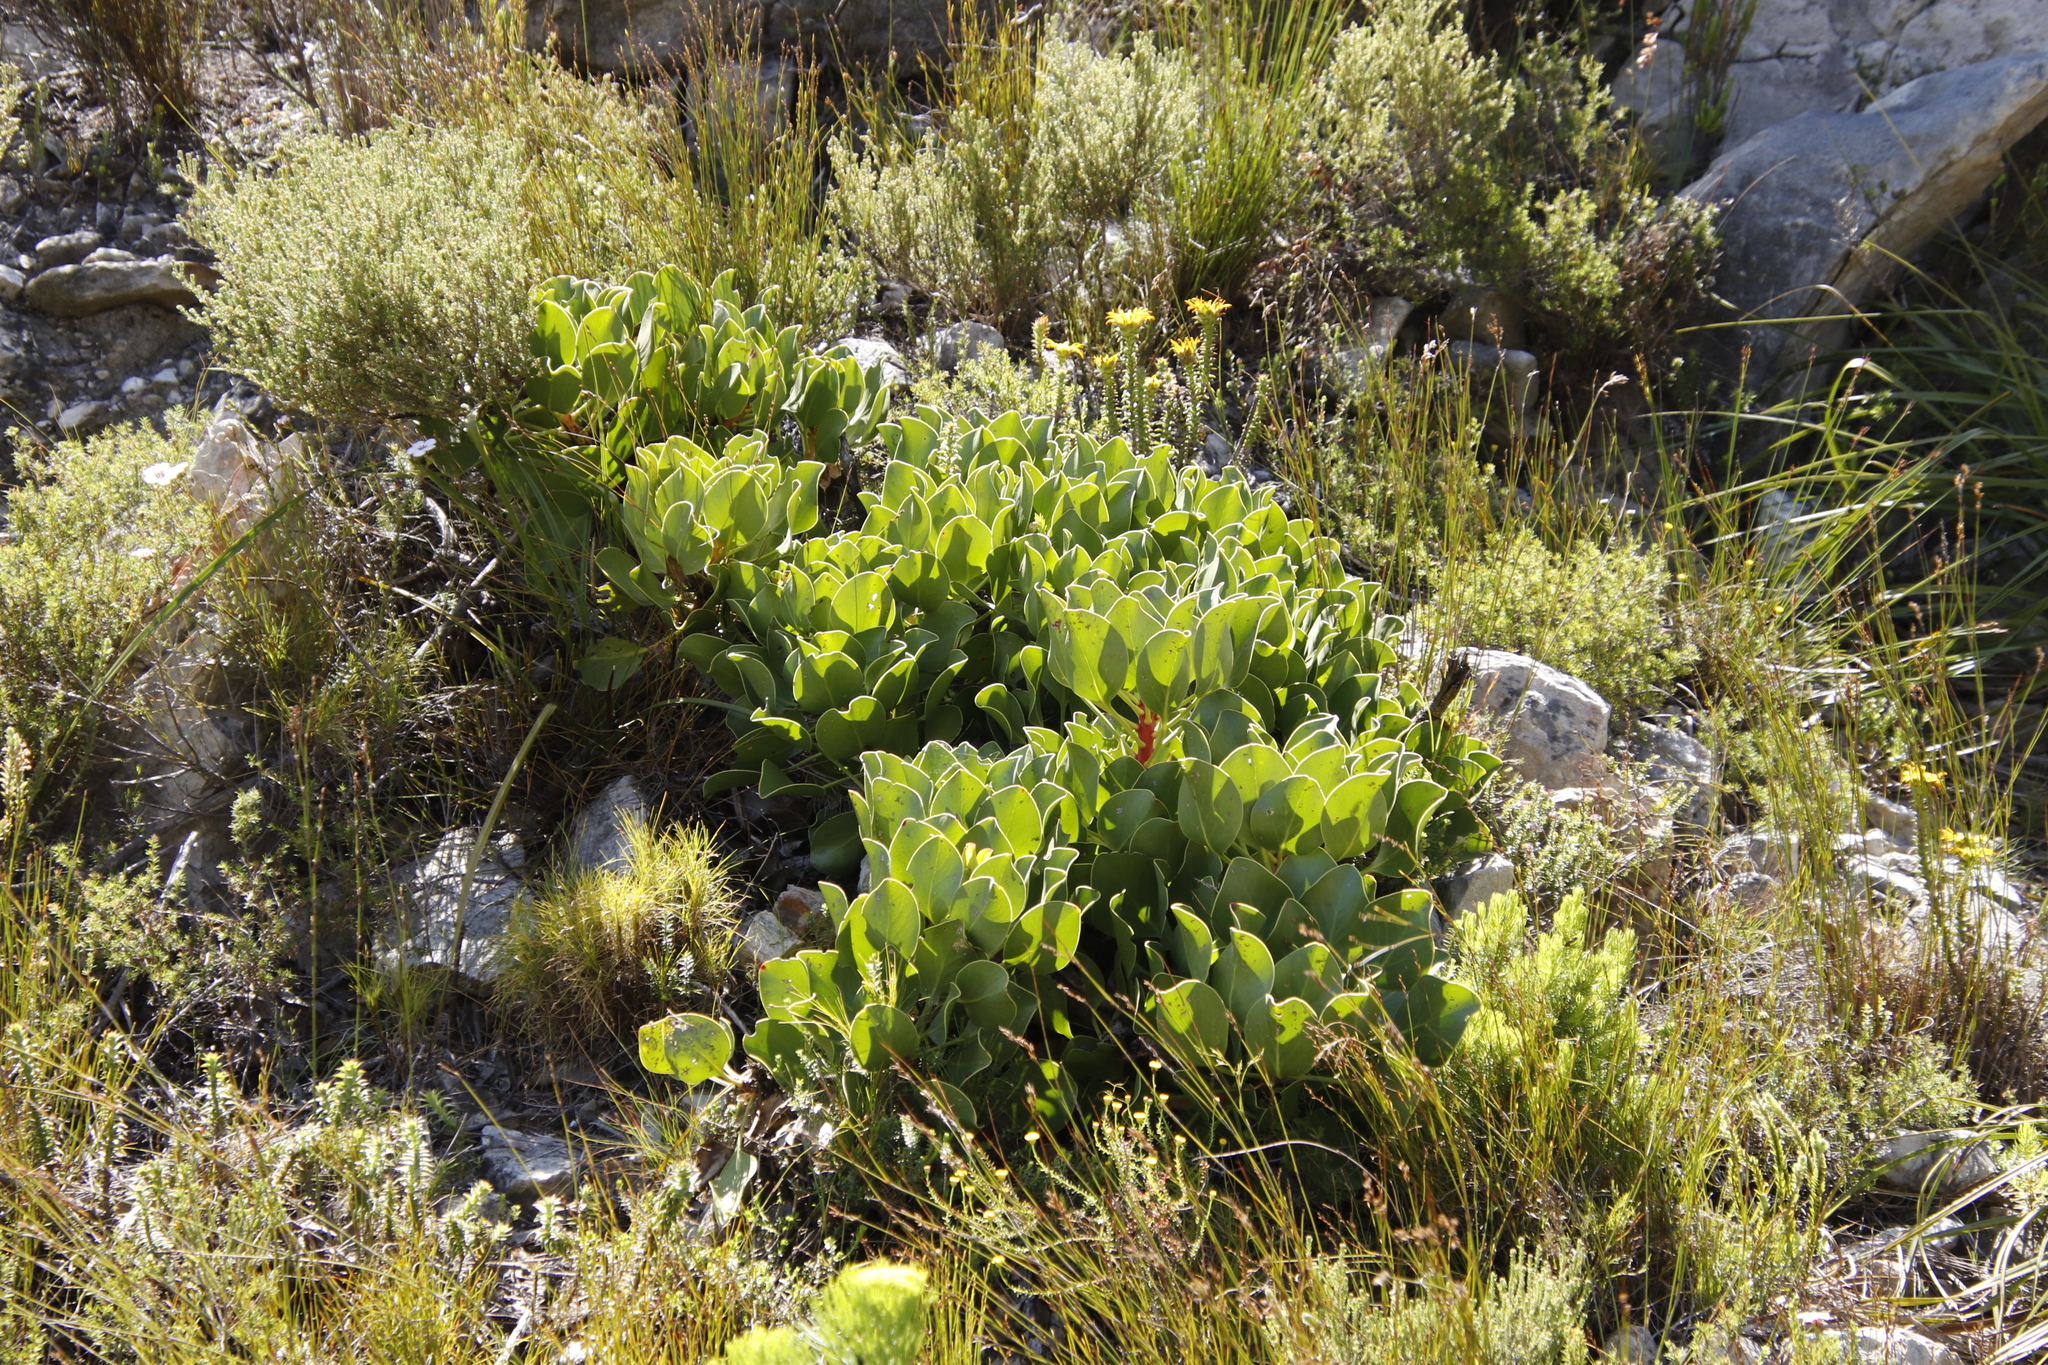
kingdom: Plantae
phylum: Tracheophyta
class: Magnoliopsida
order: Proteales
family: Proteaceae
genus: Protea
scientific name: Protea cynaroides
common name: King protea
